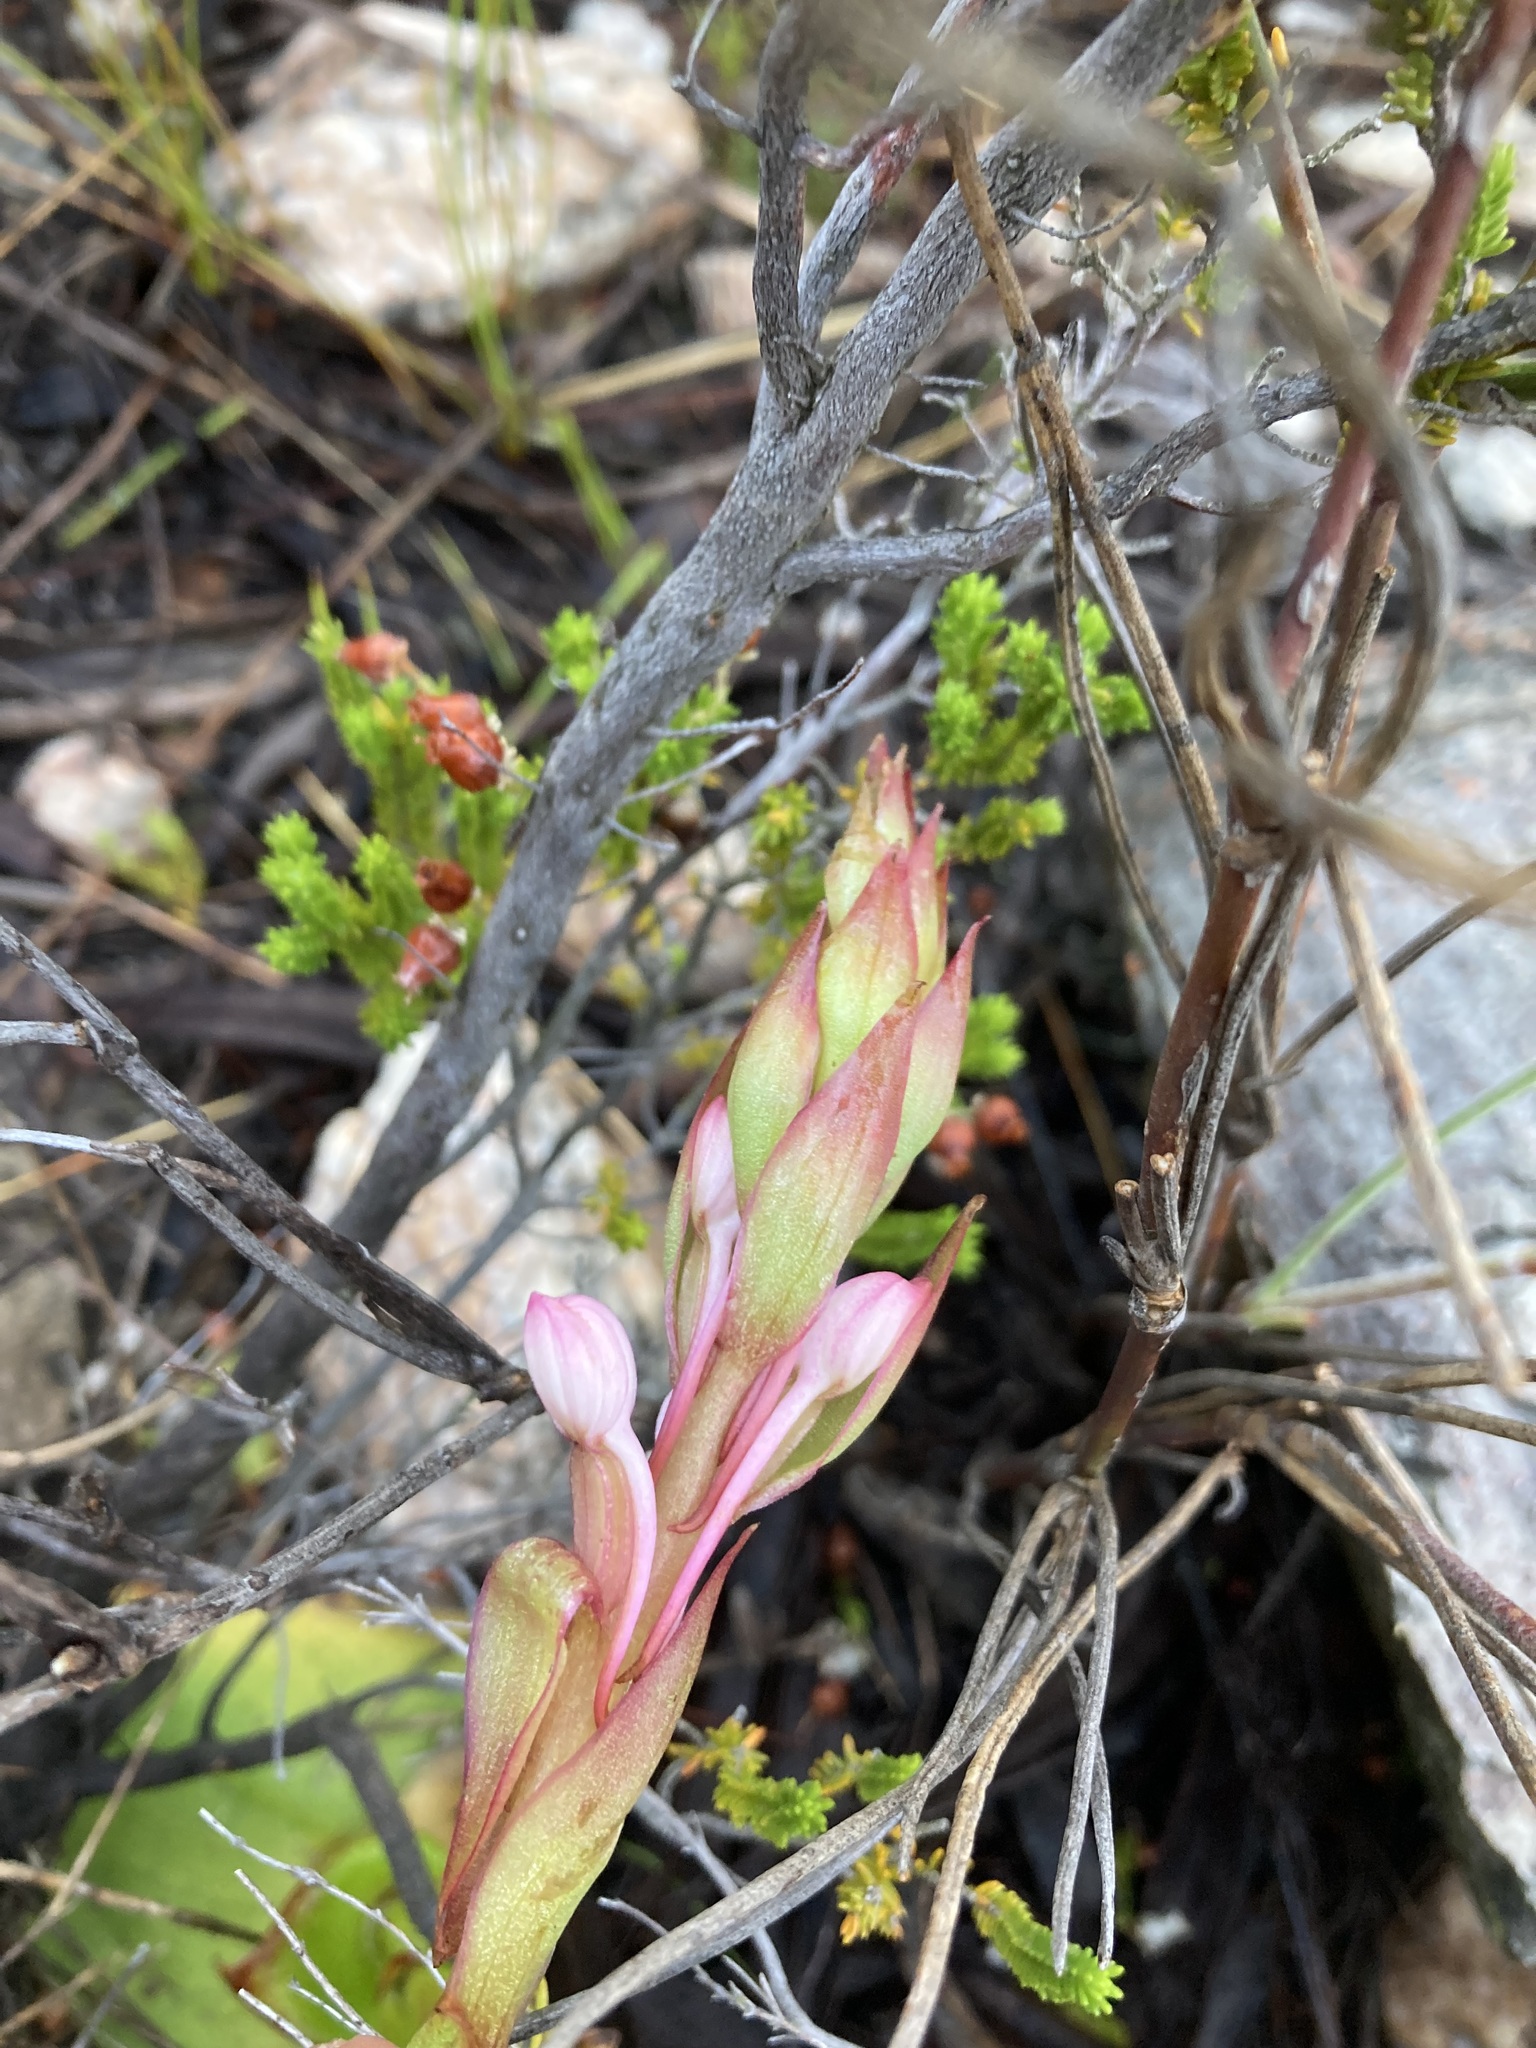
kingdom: Plantae
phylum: Tracheophyta
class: Liliopsida
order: Asparagales
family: Orchidaceae
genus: Satyrium
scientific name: Satyrium acuminatum
